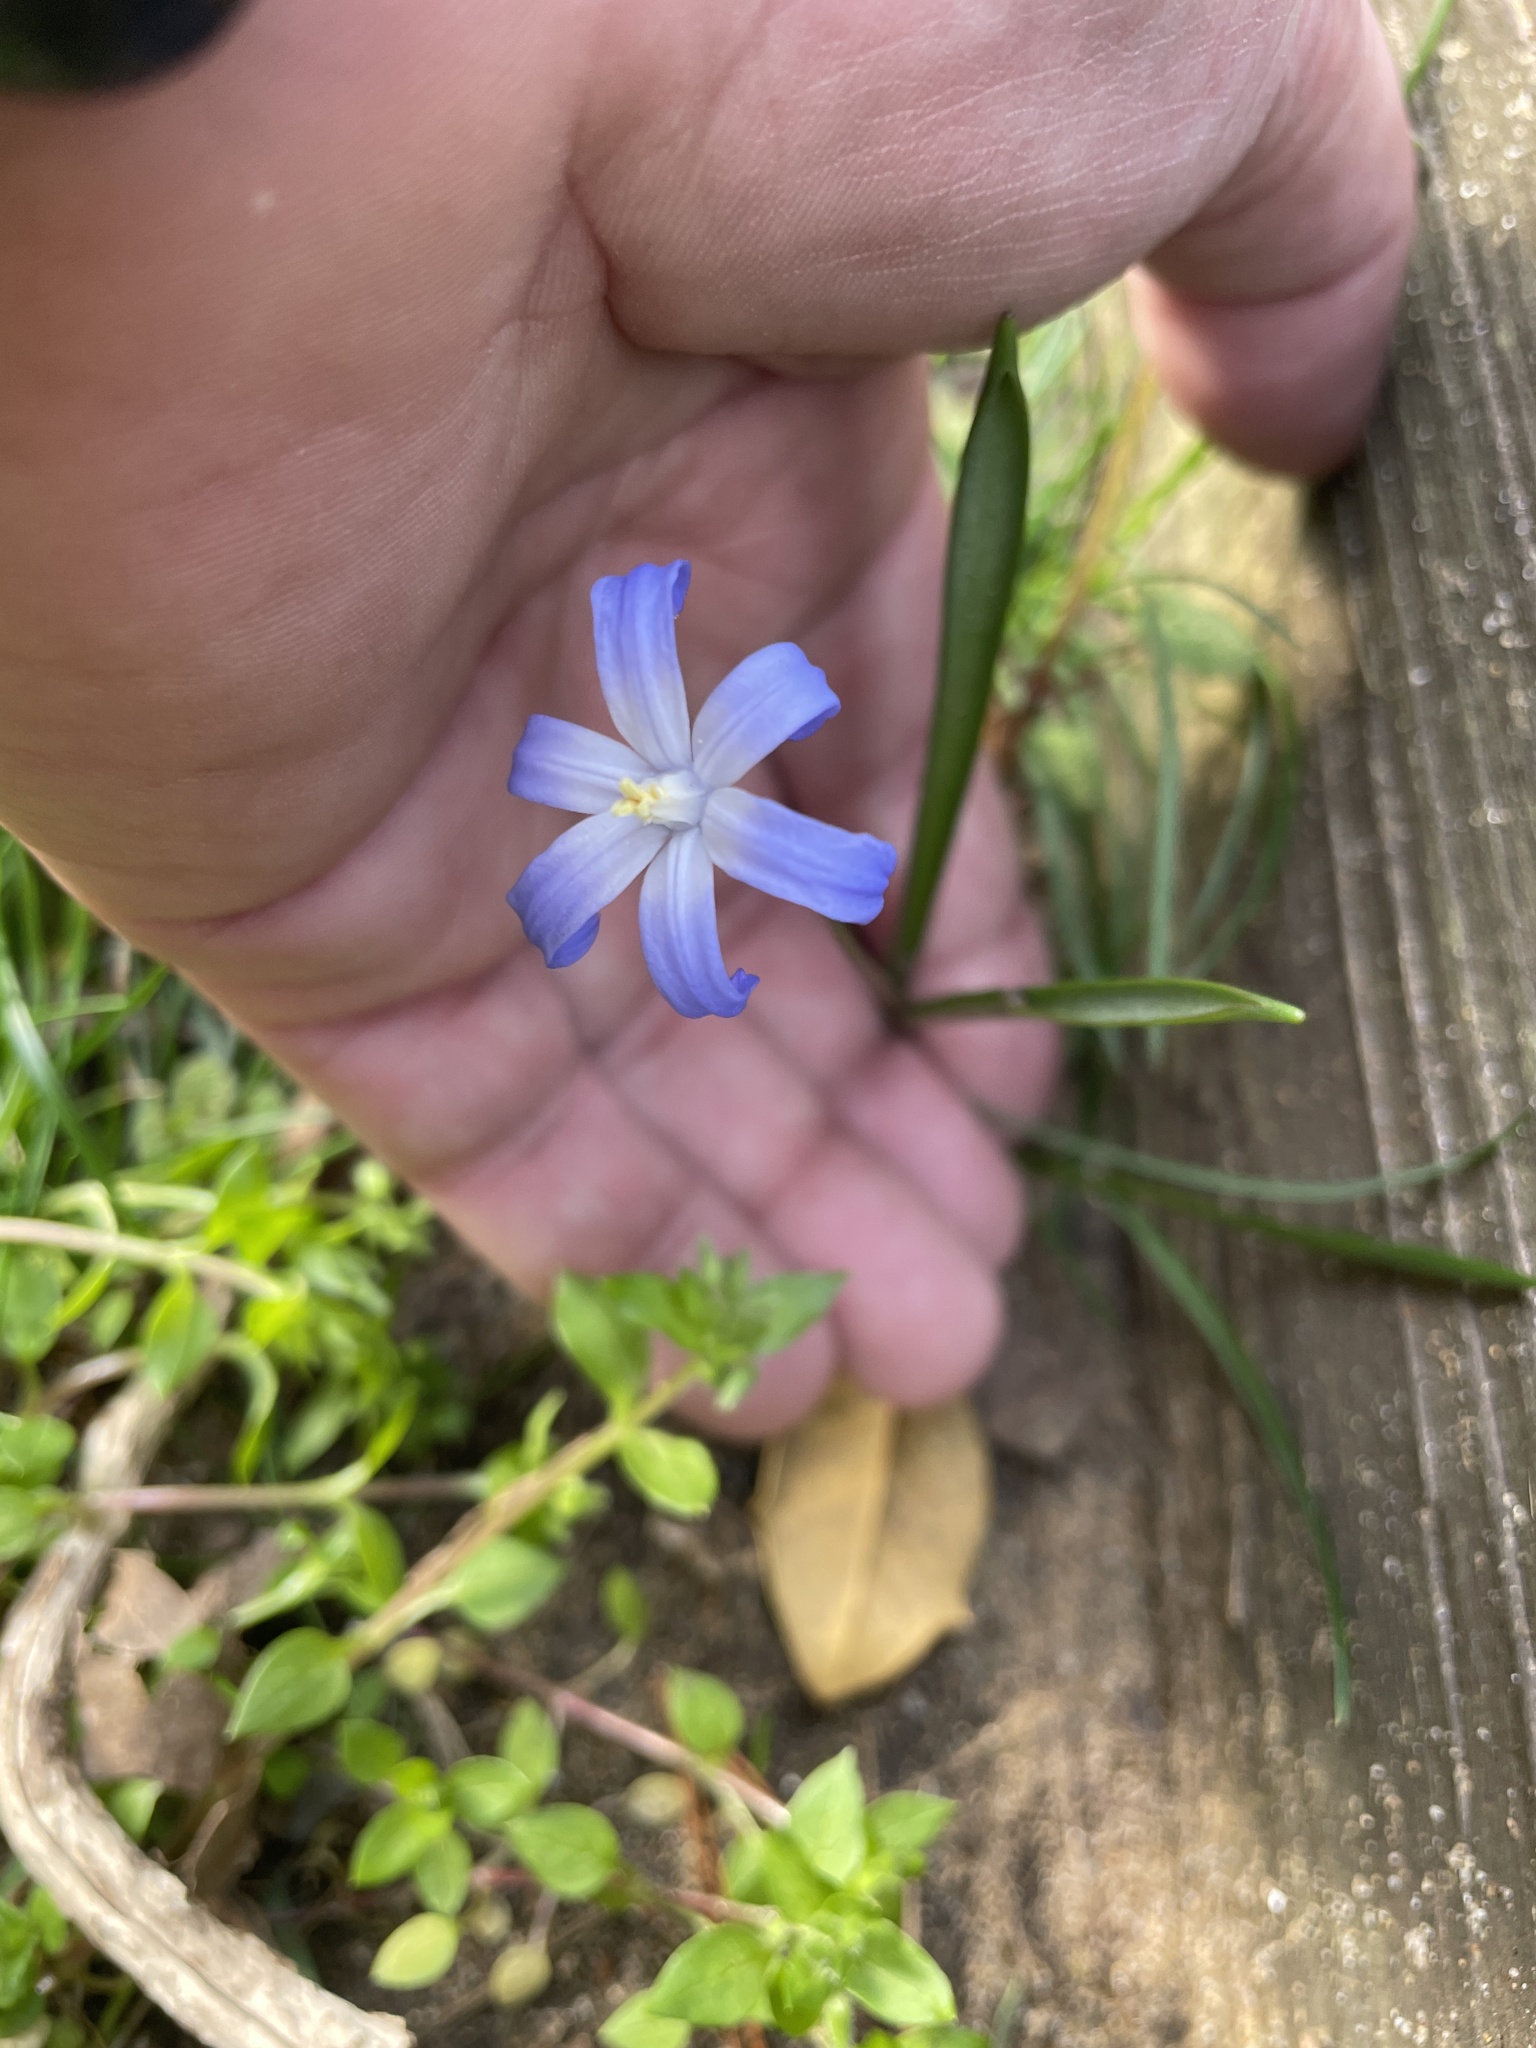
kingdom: Plantae
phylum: Tracheophyta
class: Liliopsida
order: Asparagales
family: Asparagaceae
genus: Scilla
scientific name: Scilla luciliae
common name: Boissier's glory-of-the-snow
